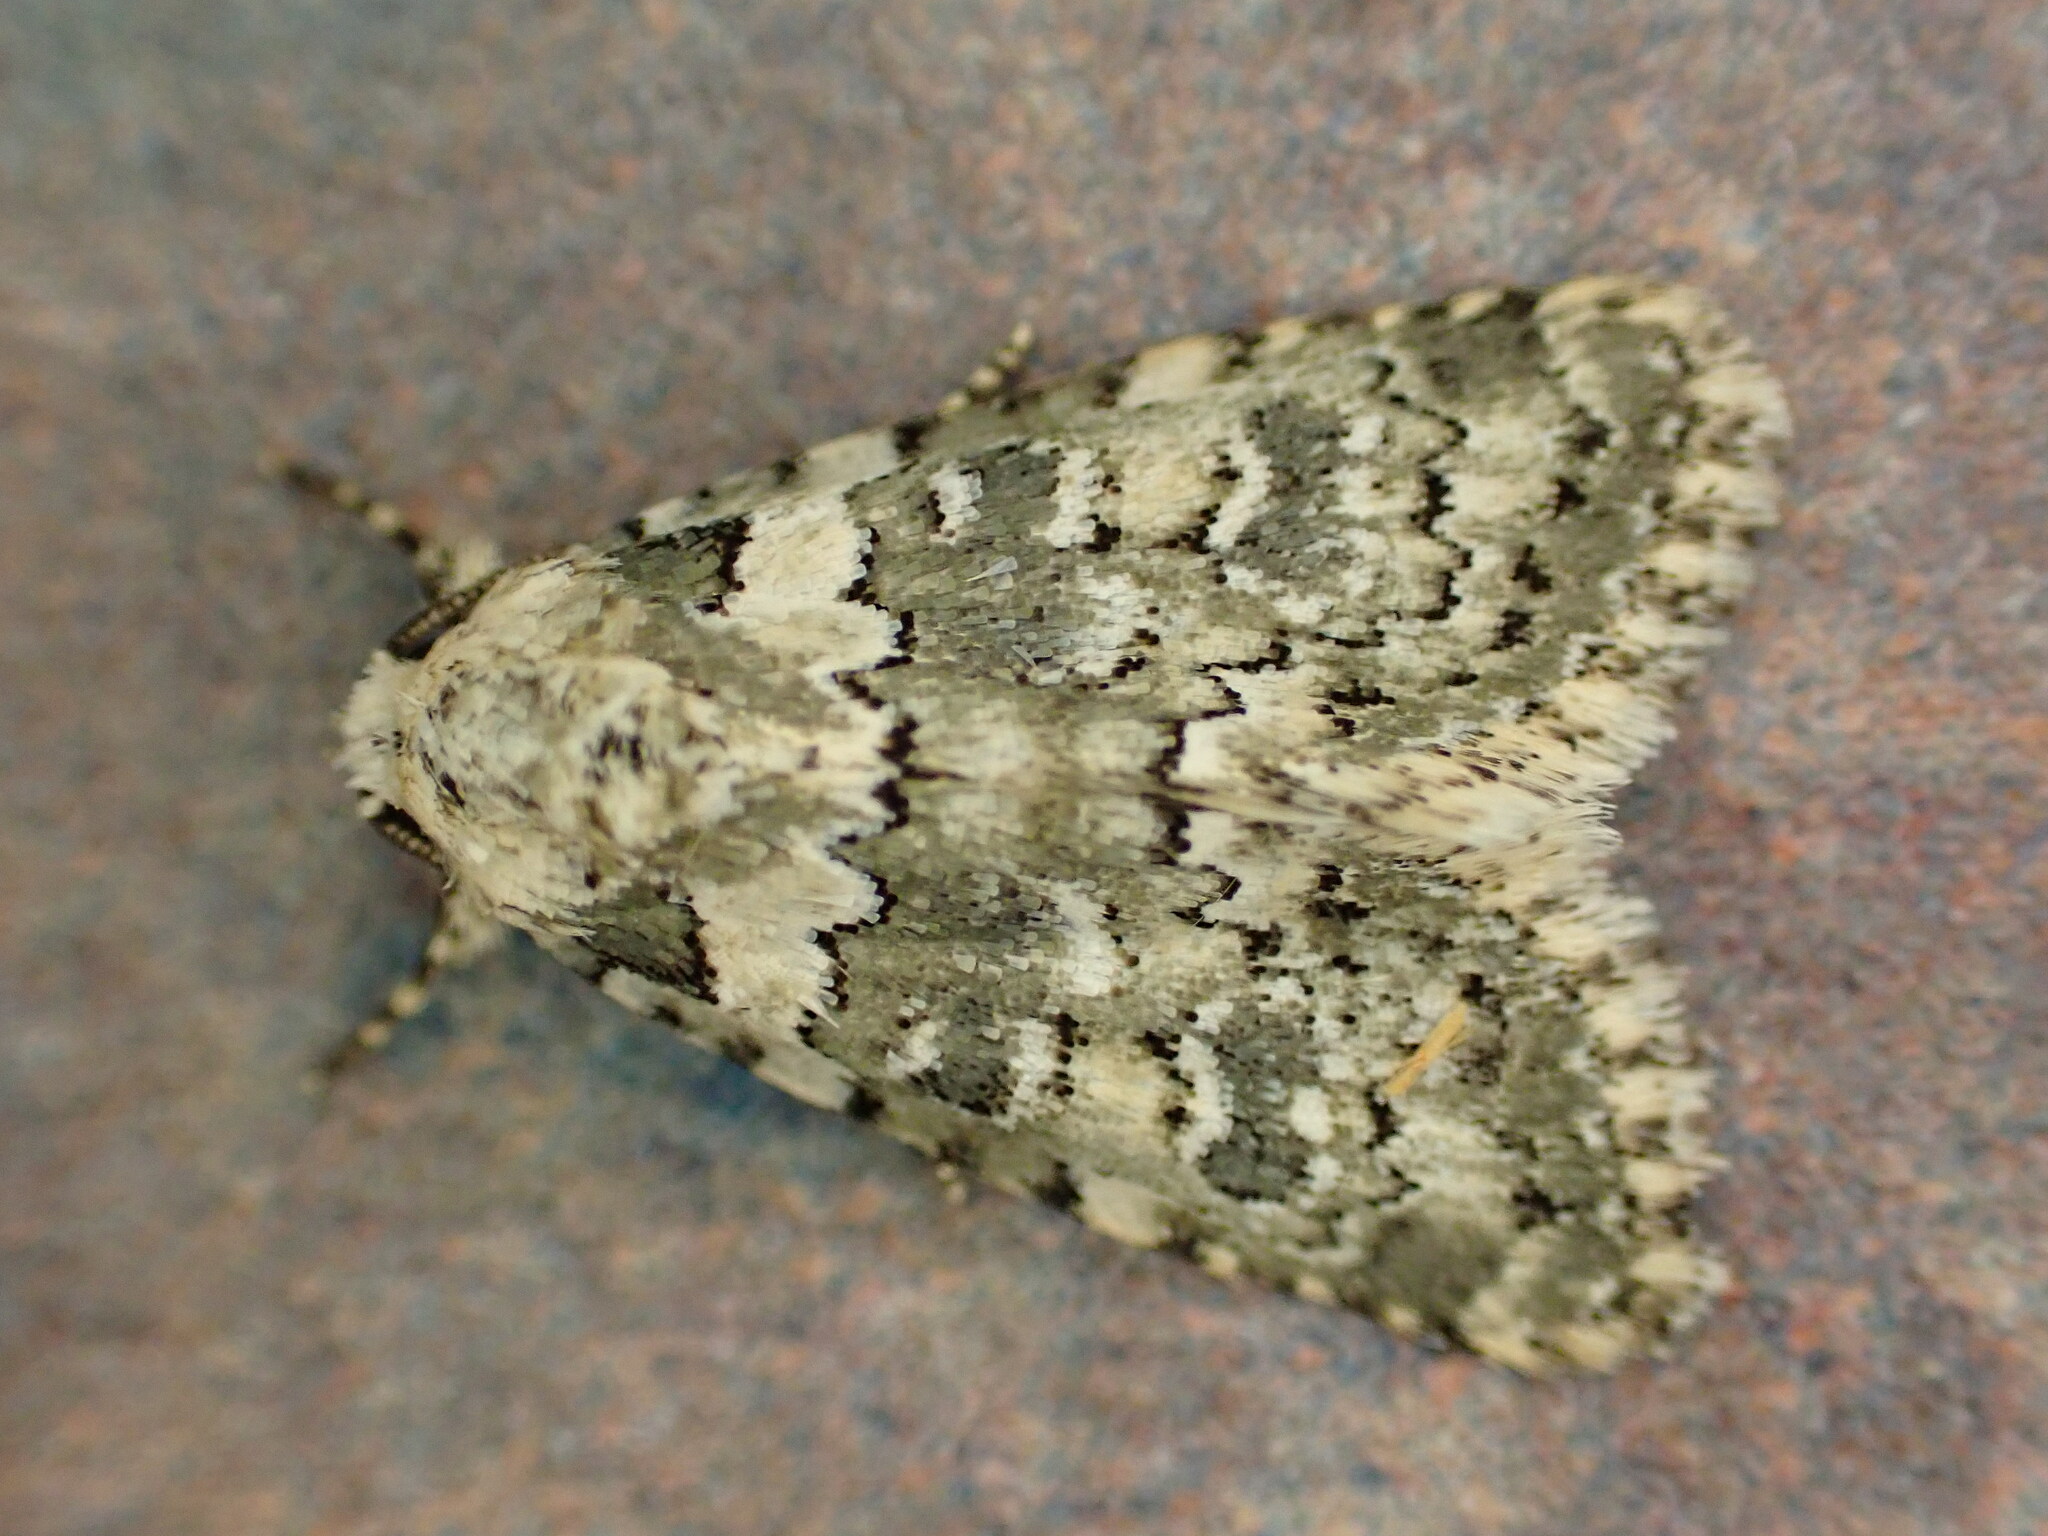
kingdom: Animalia
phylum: Arthropoda
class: Insecta
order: Lepidoptera
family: Noctuidae
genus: Bryophila
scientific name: Bryophila domestica
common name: Marbled beauty
